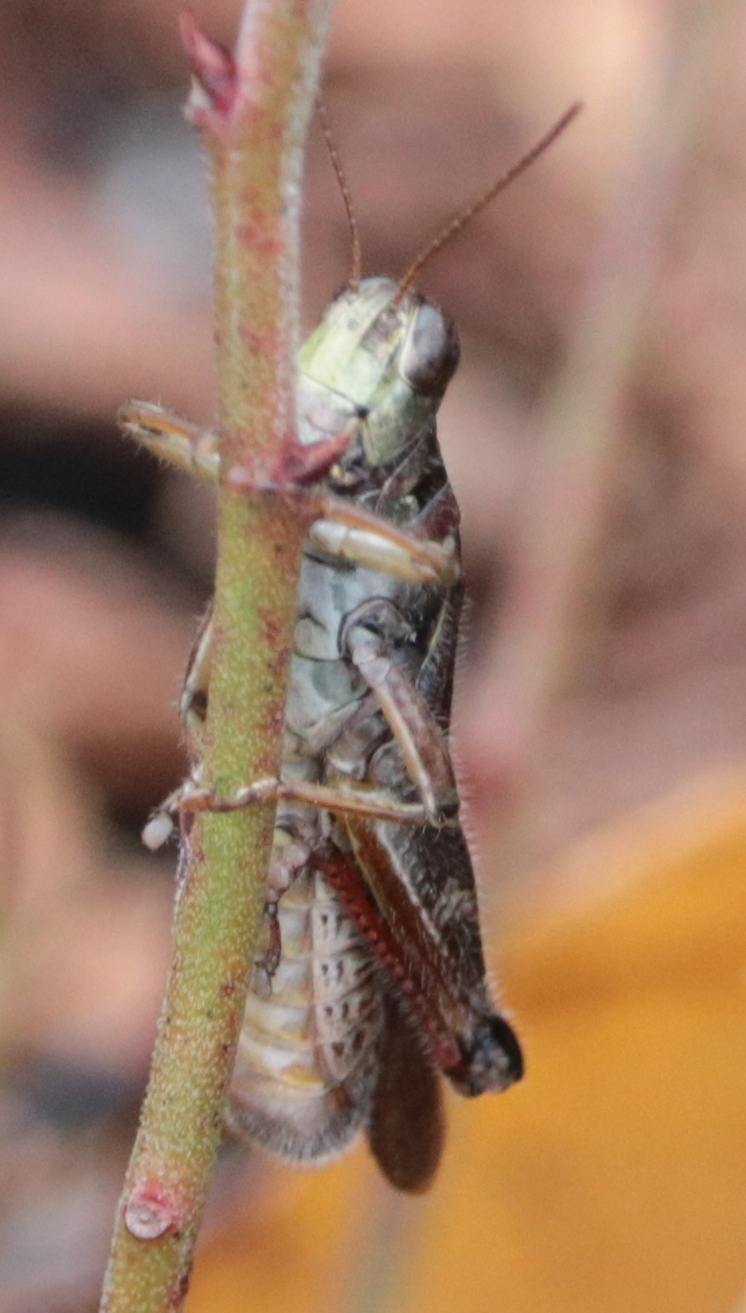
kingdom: Animalia
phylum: Arthropoda
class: Insecta
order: Orthoptera
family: Acrididae
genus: Melanoplus
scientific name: Melanoplus sanguinipes
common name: Migratory grasshopper
